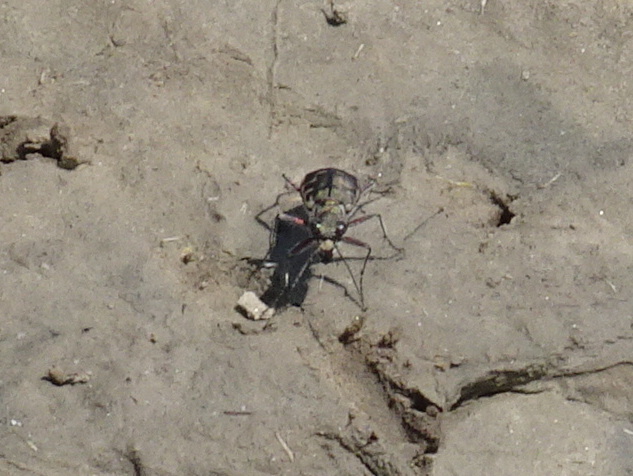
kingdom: Animalia
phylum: Arthropoda
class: Insecta
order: Coleoptera
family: Carabidae
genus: Cicindela
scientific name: Cicindela repanda
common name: Bronzed tiger beetle
